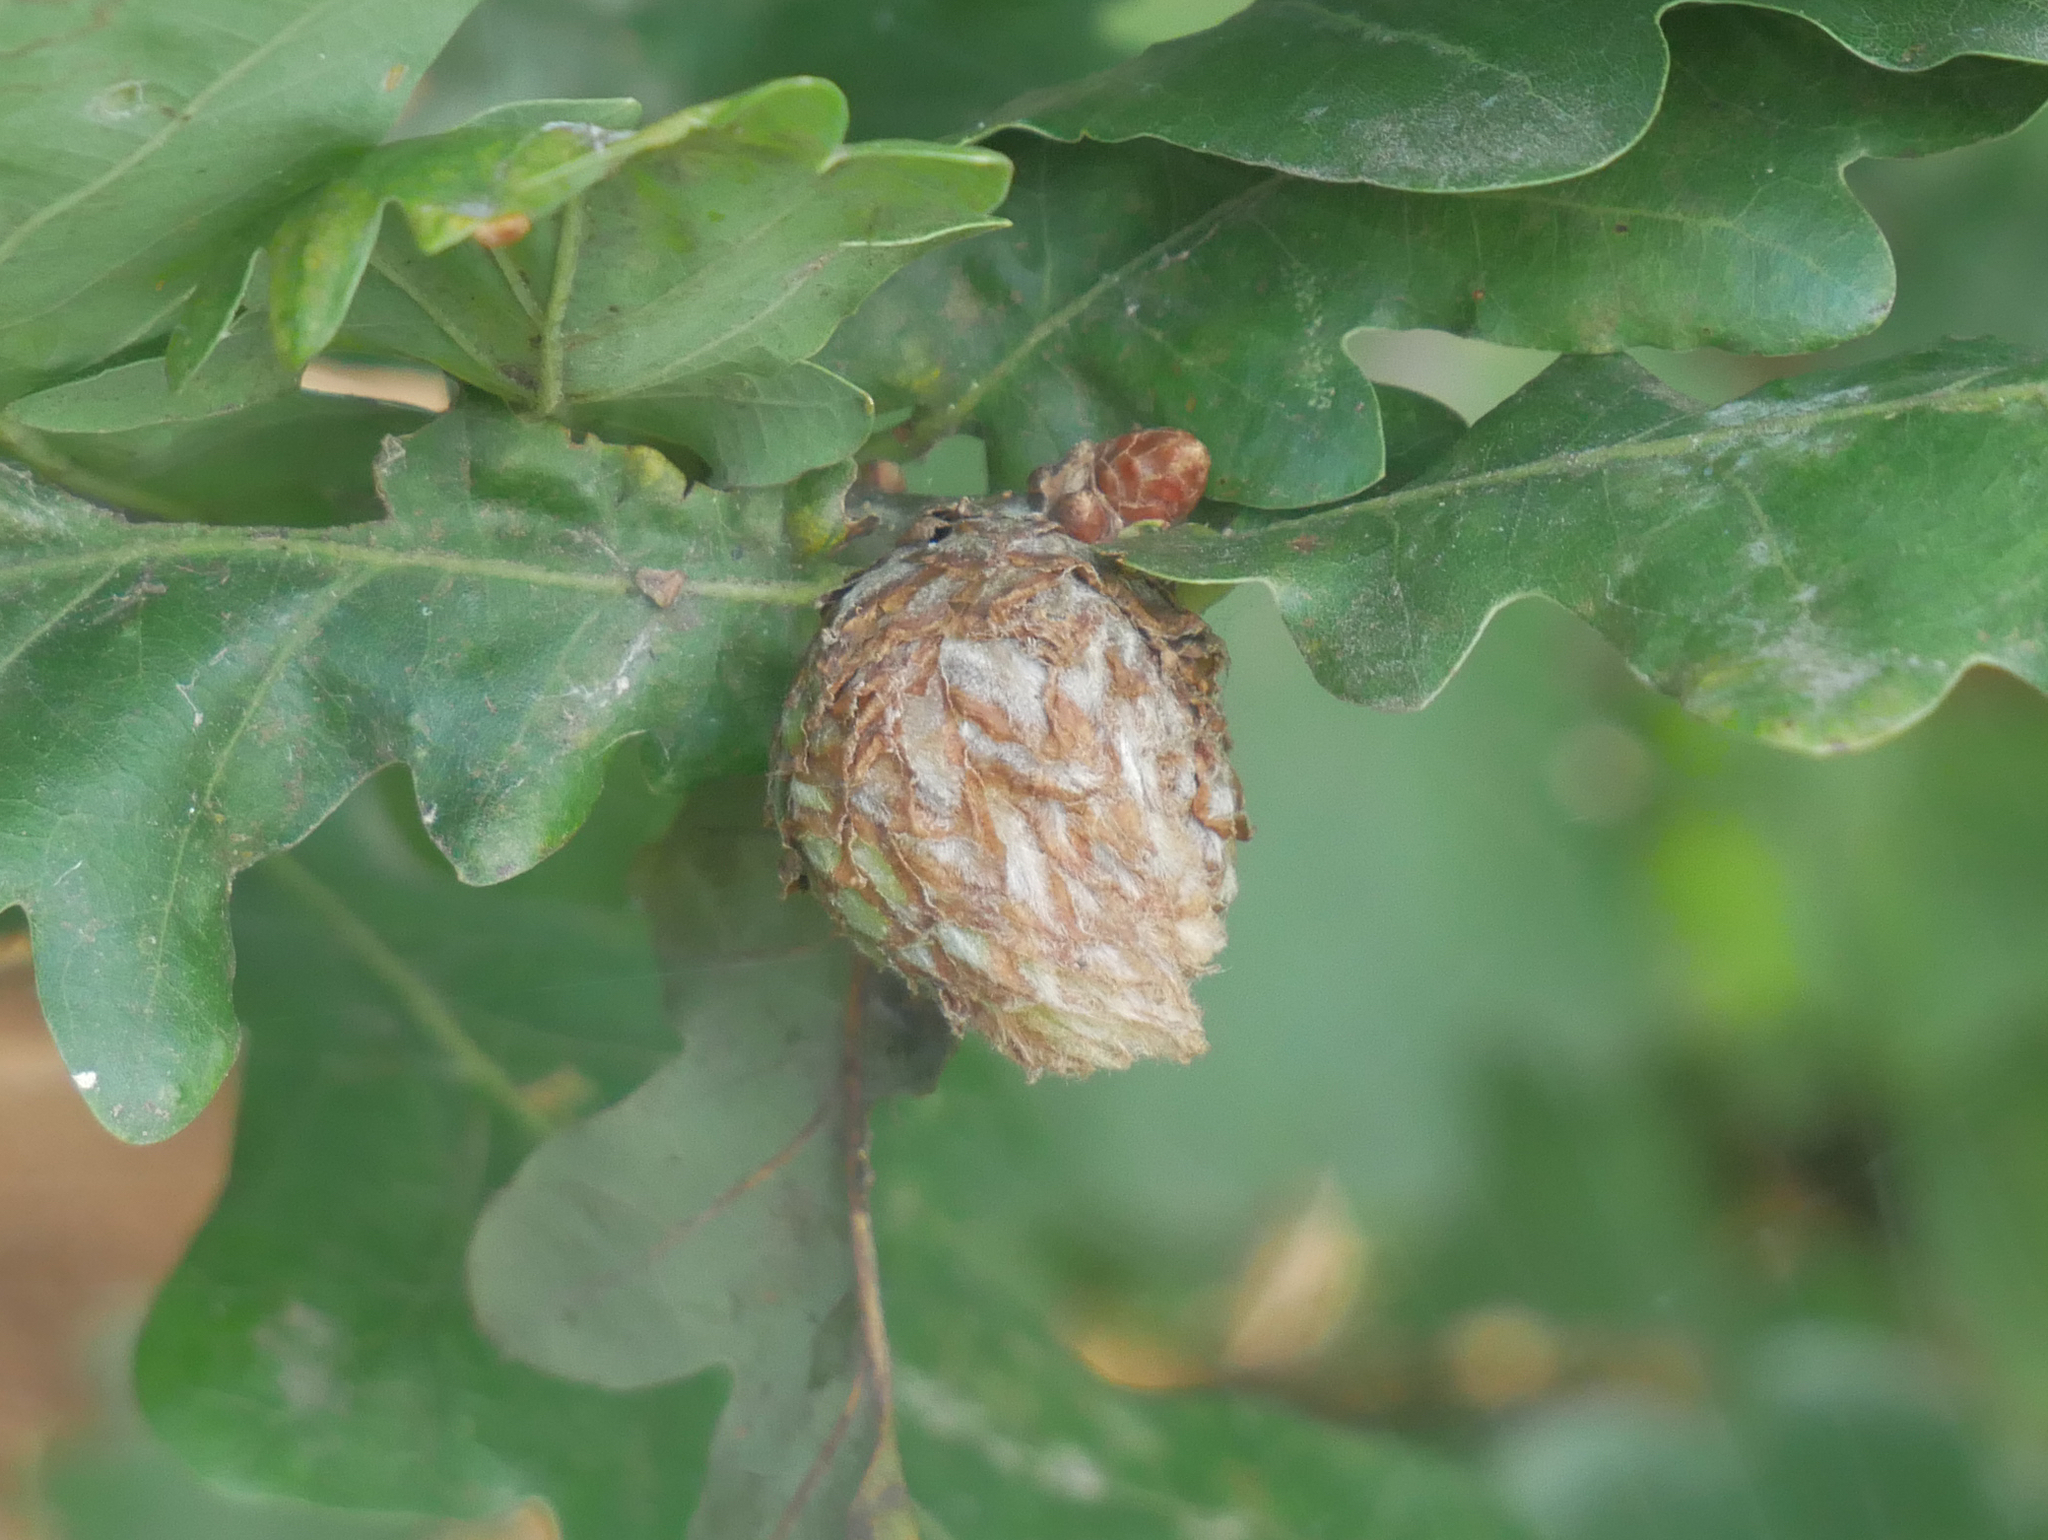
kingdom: Animalia
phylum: Arthropoda
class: Insecta
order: Hymenoptera
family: Cynipidae
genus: Andricus
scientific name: Andricus foecundatrix
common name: Artichoke gall
